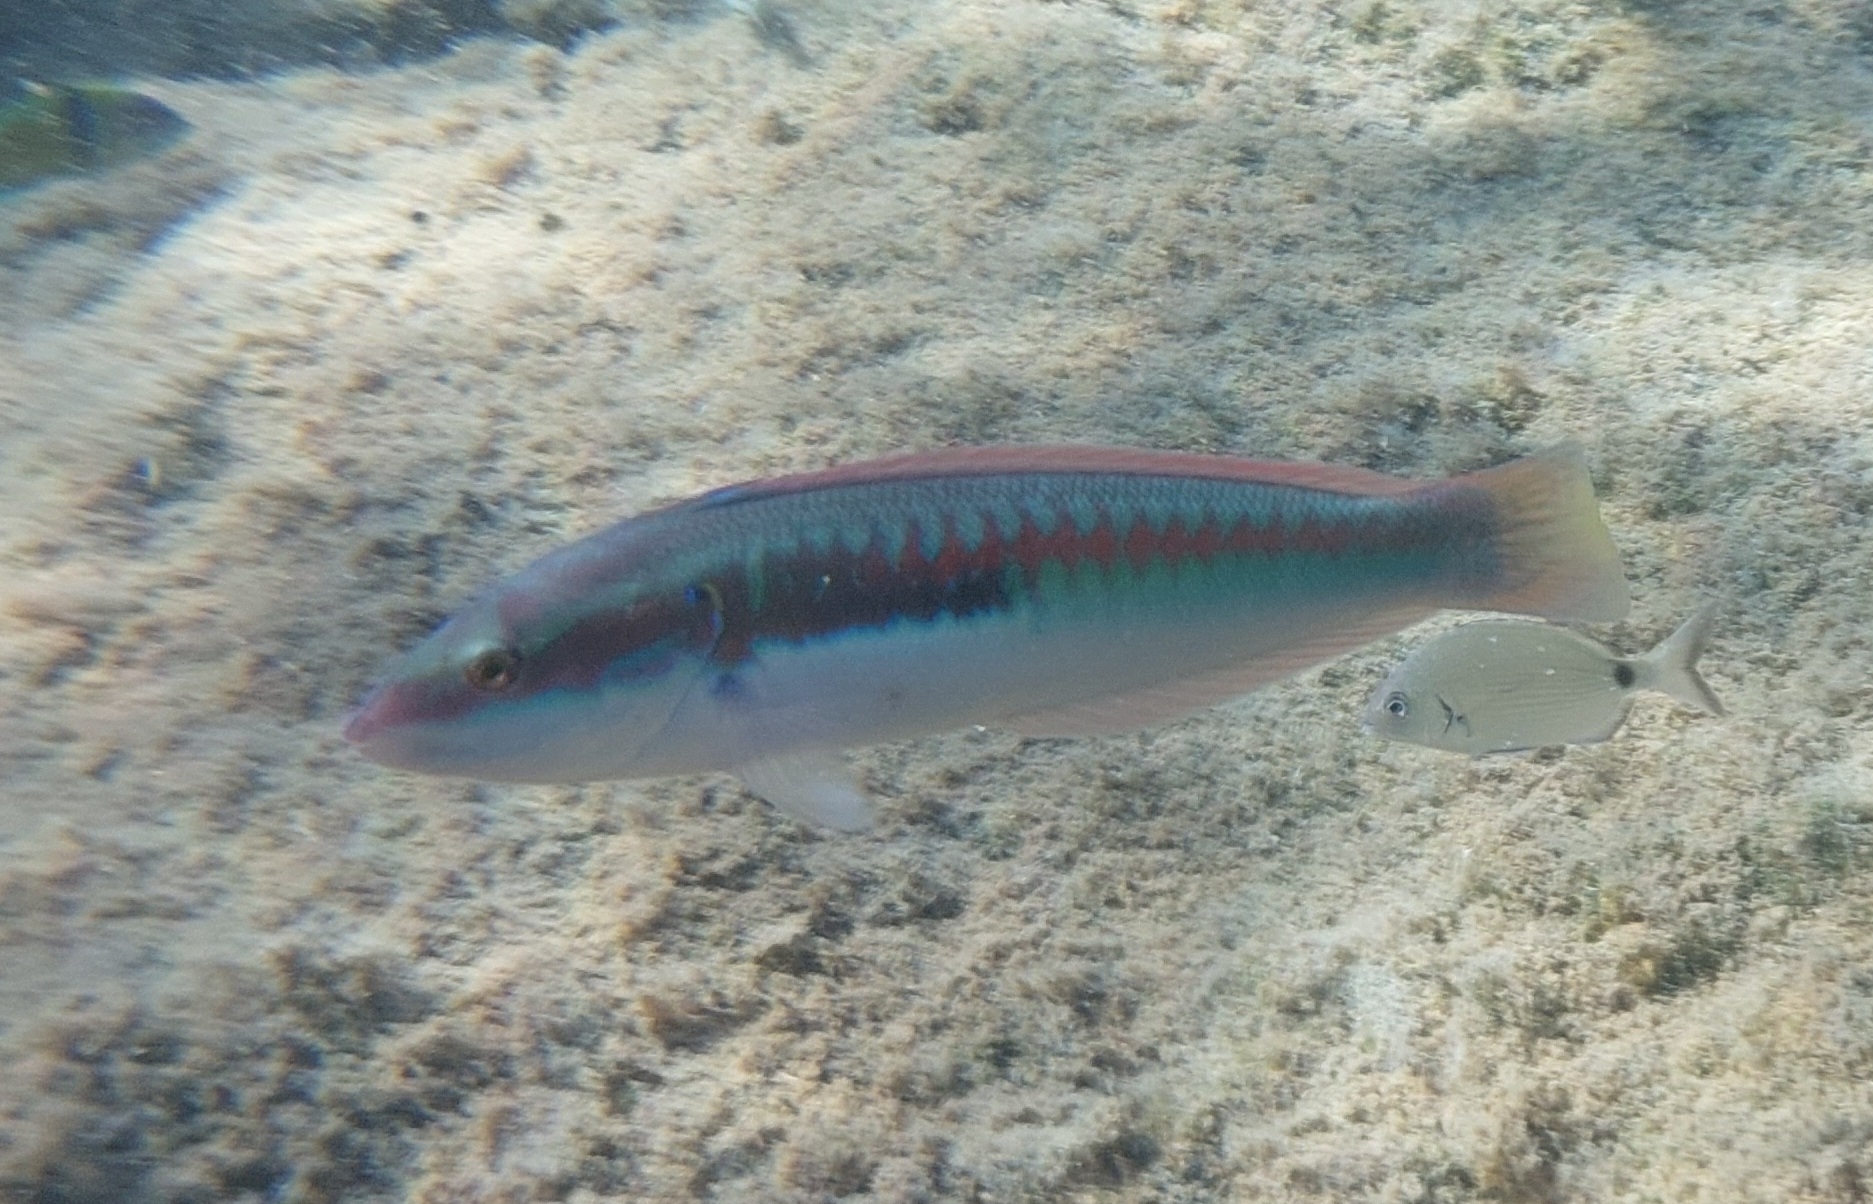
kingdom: Animalia
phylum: Chordata
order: Perciformes
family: Labridae
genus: Coris
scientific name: Coris julis
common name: Rainbow wrasse
